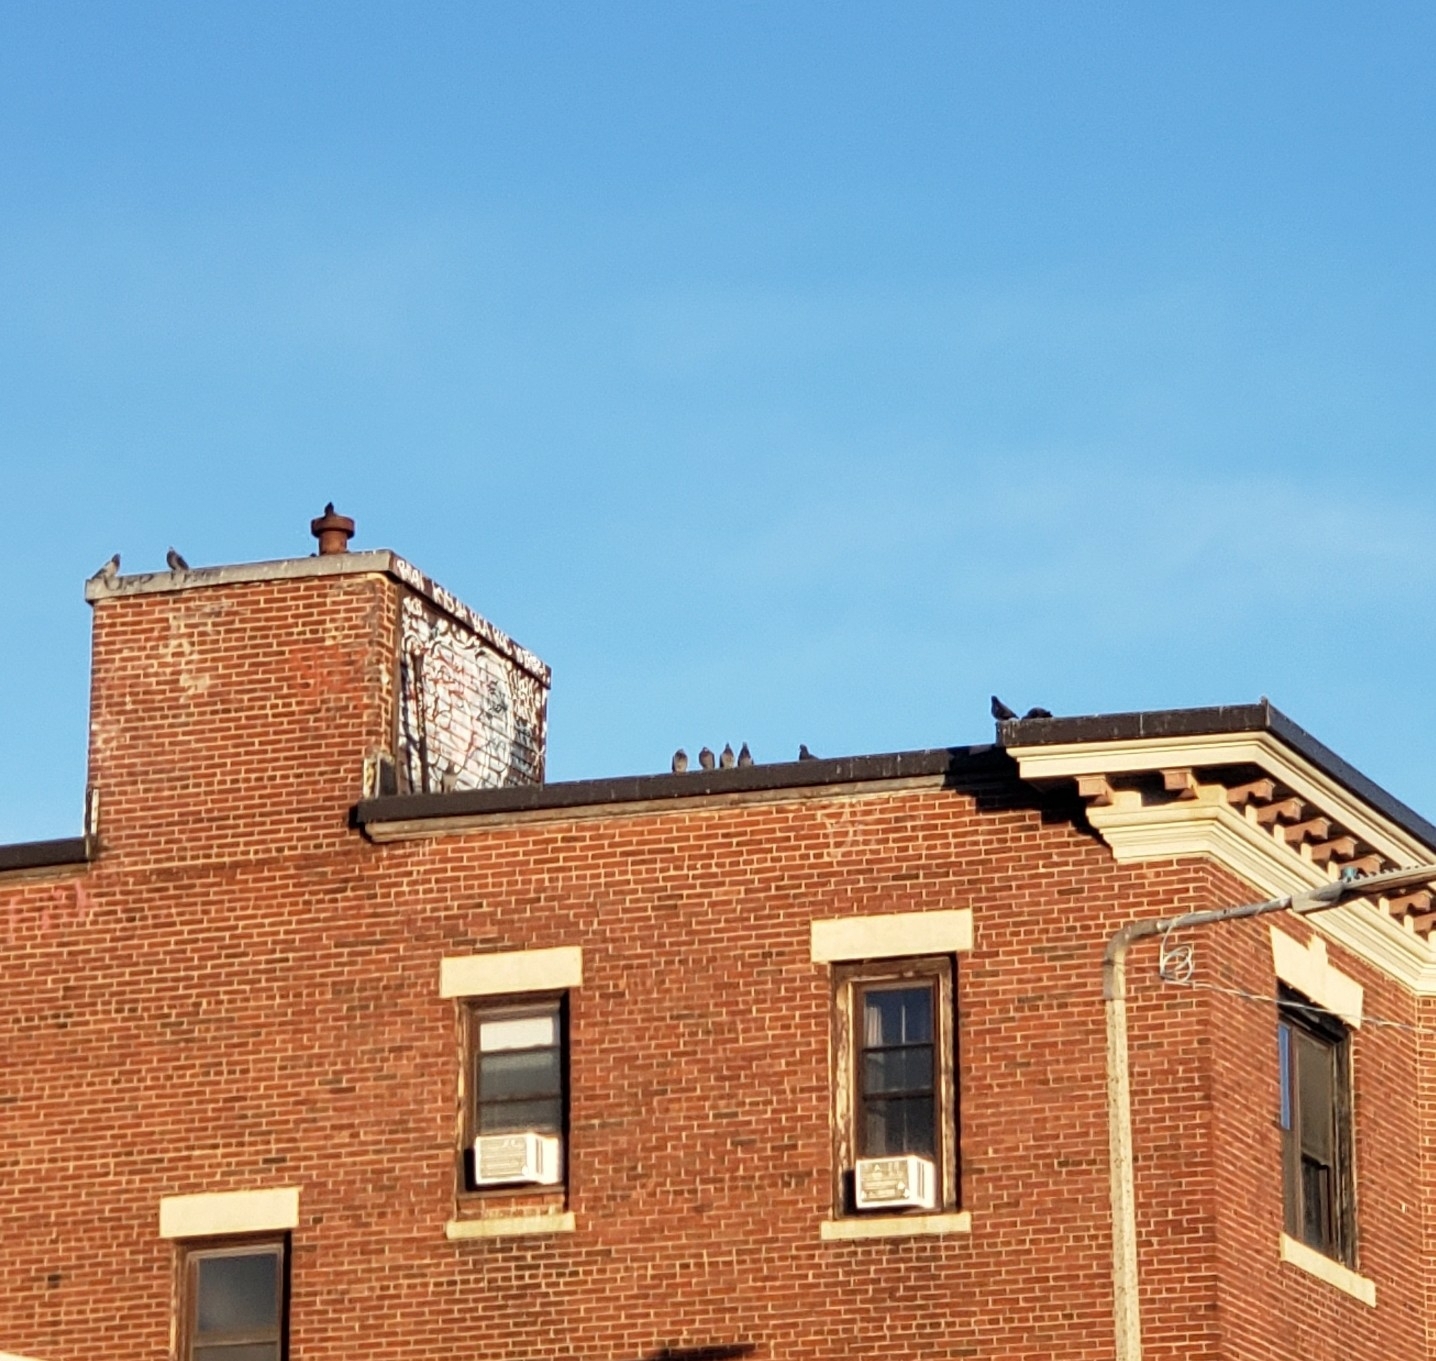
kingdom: Animalia
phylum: Chordata
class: Aves
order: Columbiformes
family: Columbidae
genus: Columba
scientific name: Columba livia
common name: Rock pigeon
